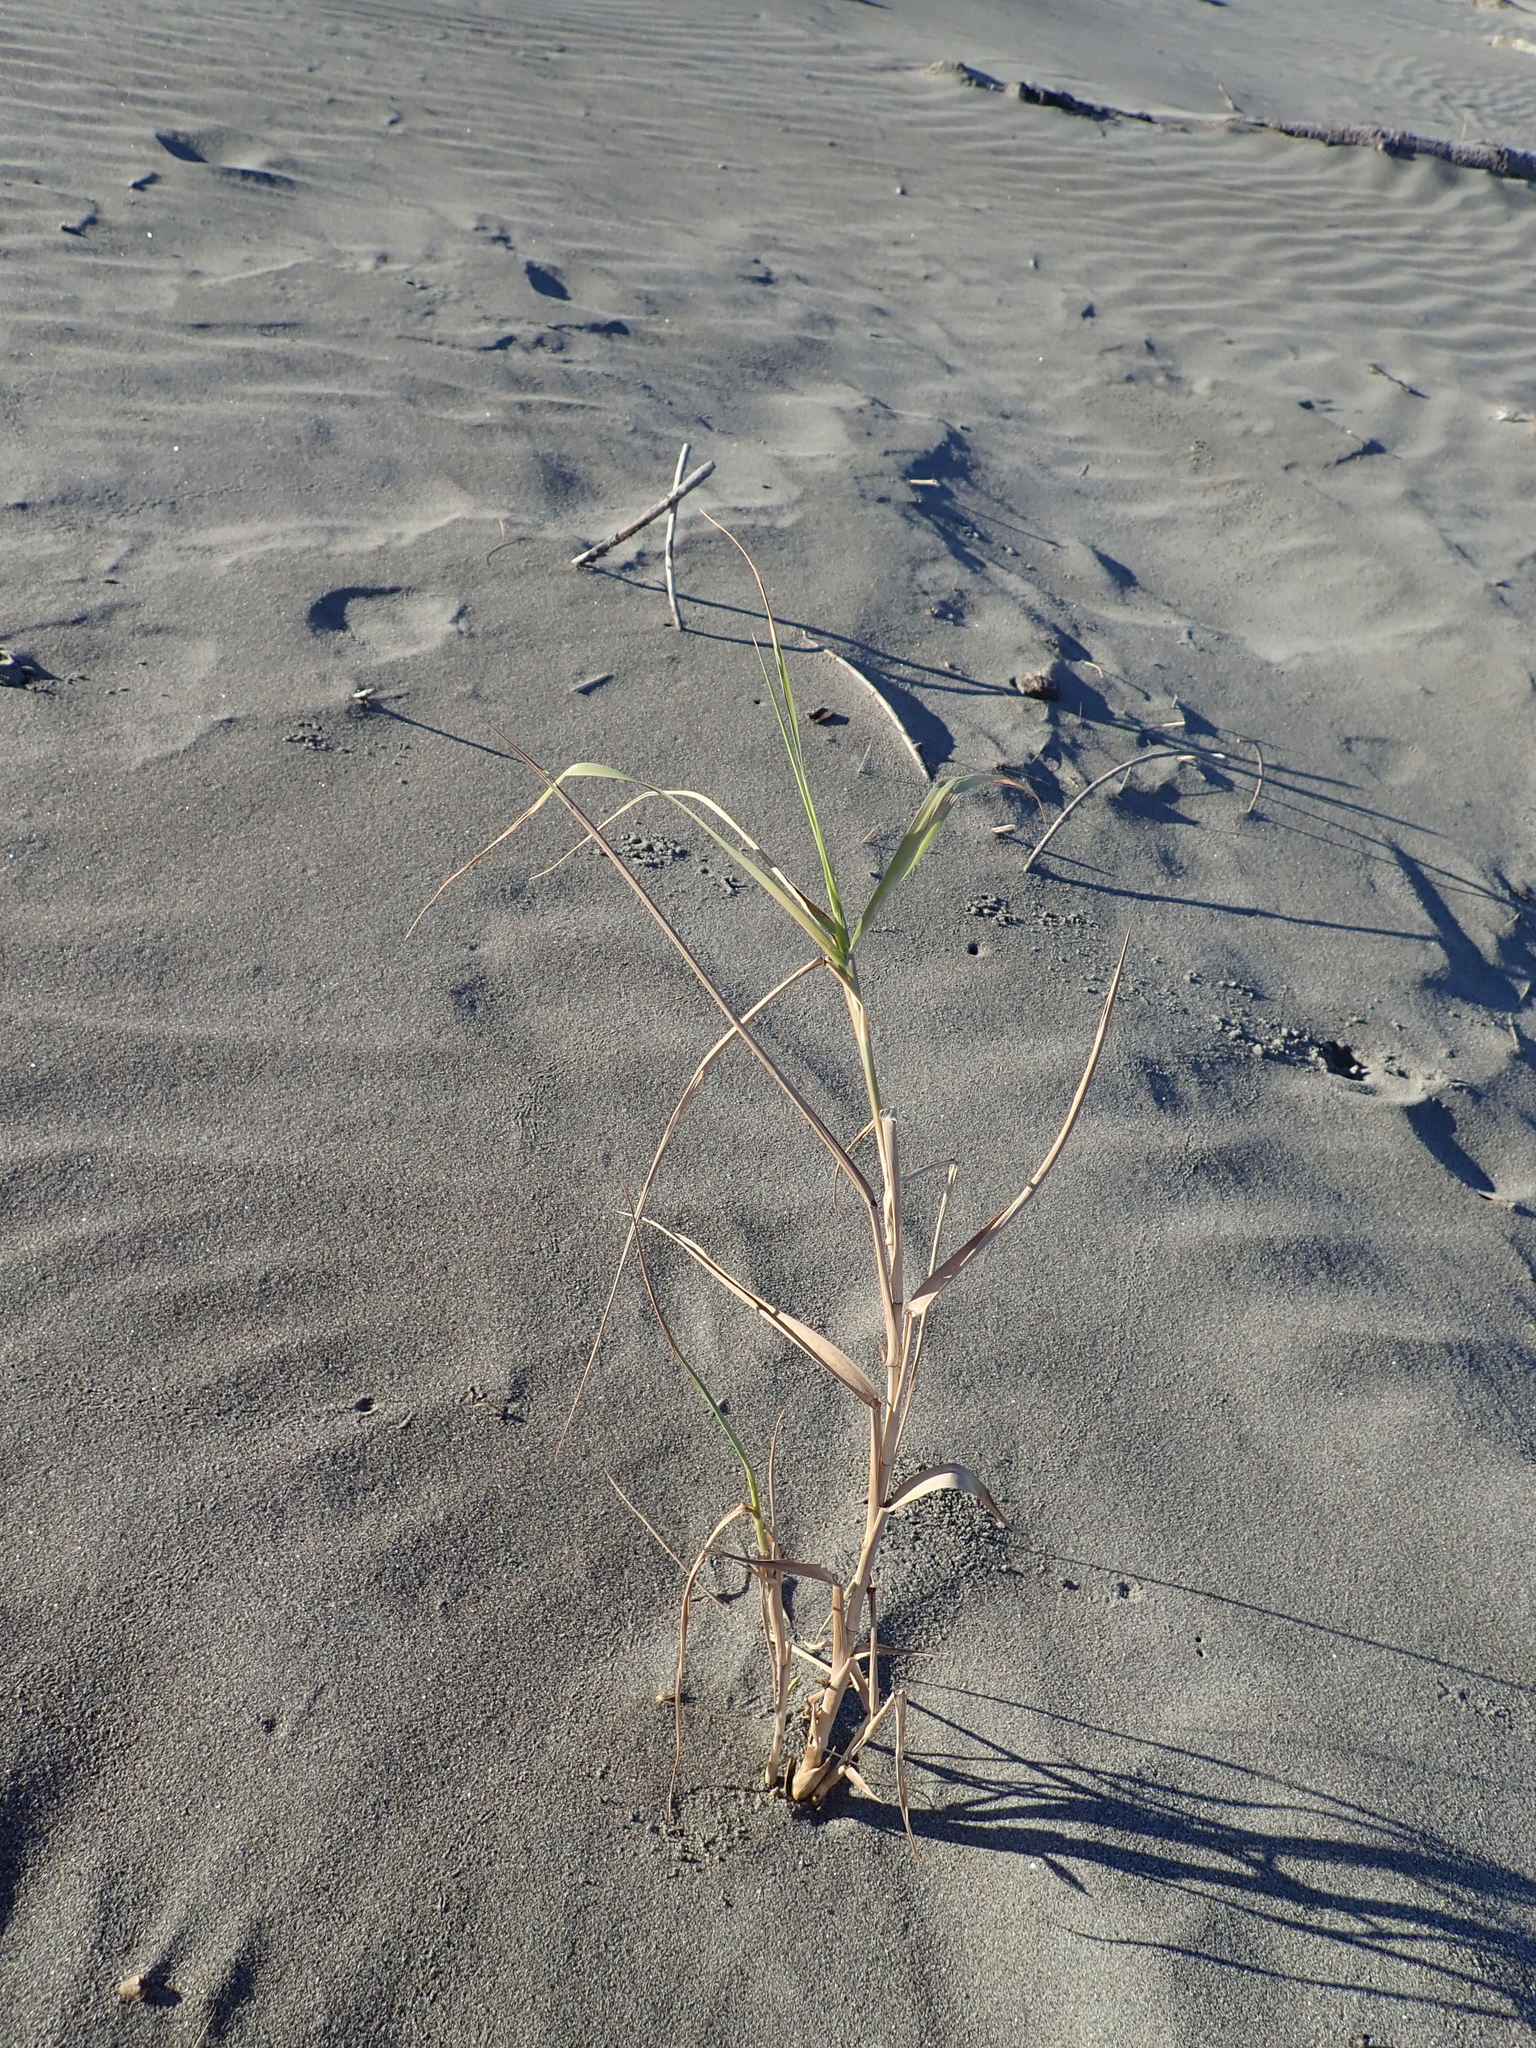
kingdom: Plantae
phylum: Tracheophyta
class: Liliopsida
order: Poales
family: Poaceae
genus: Phragmites
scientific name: Phragmites karka
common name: Tropical reed
